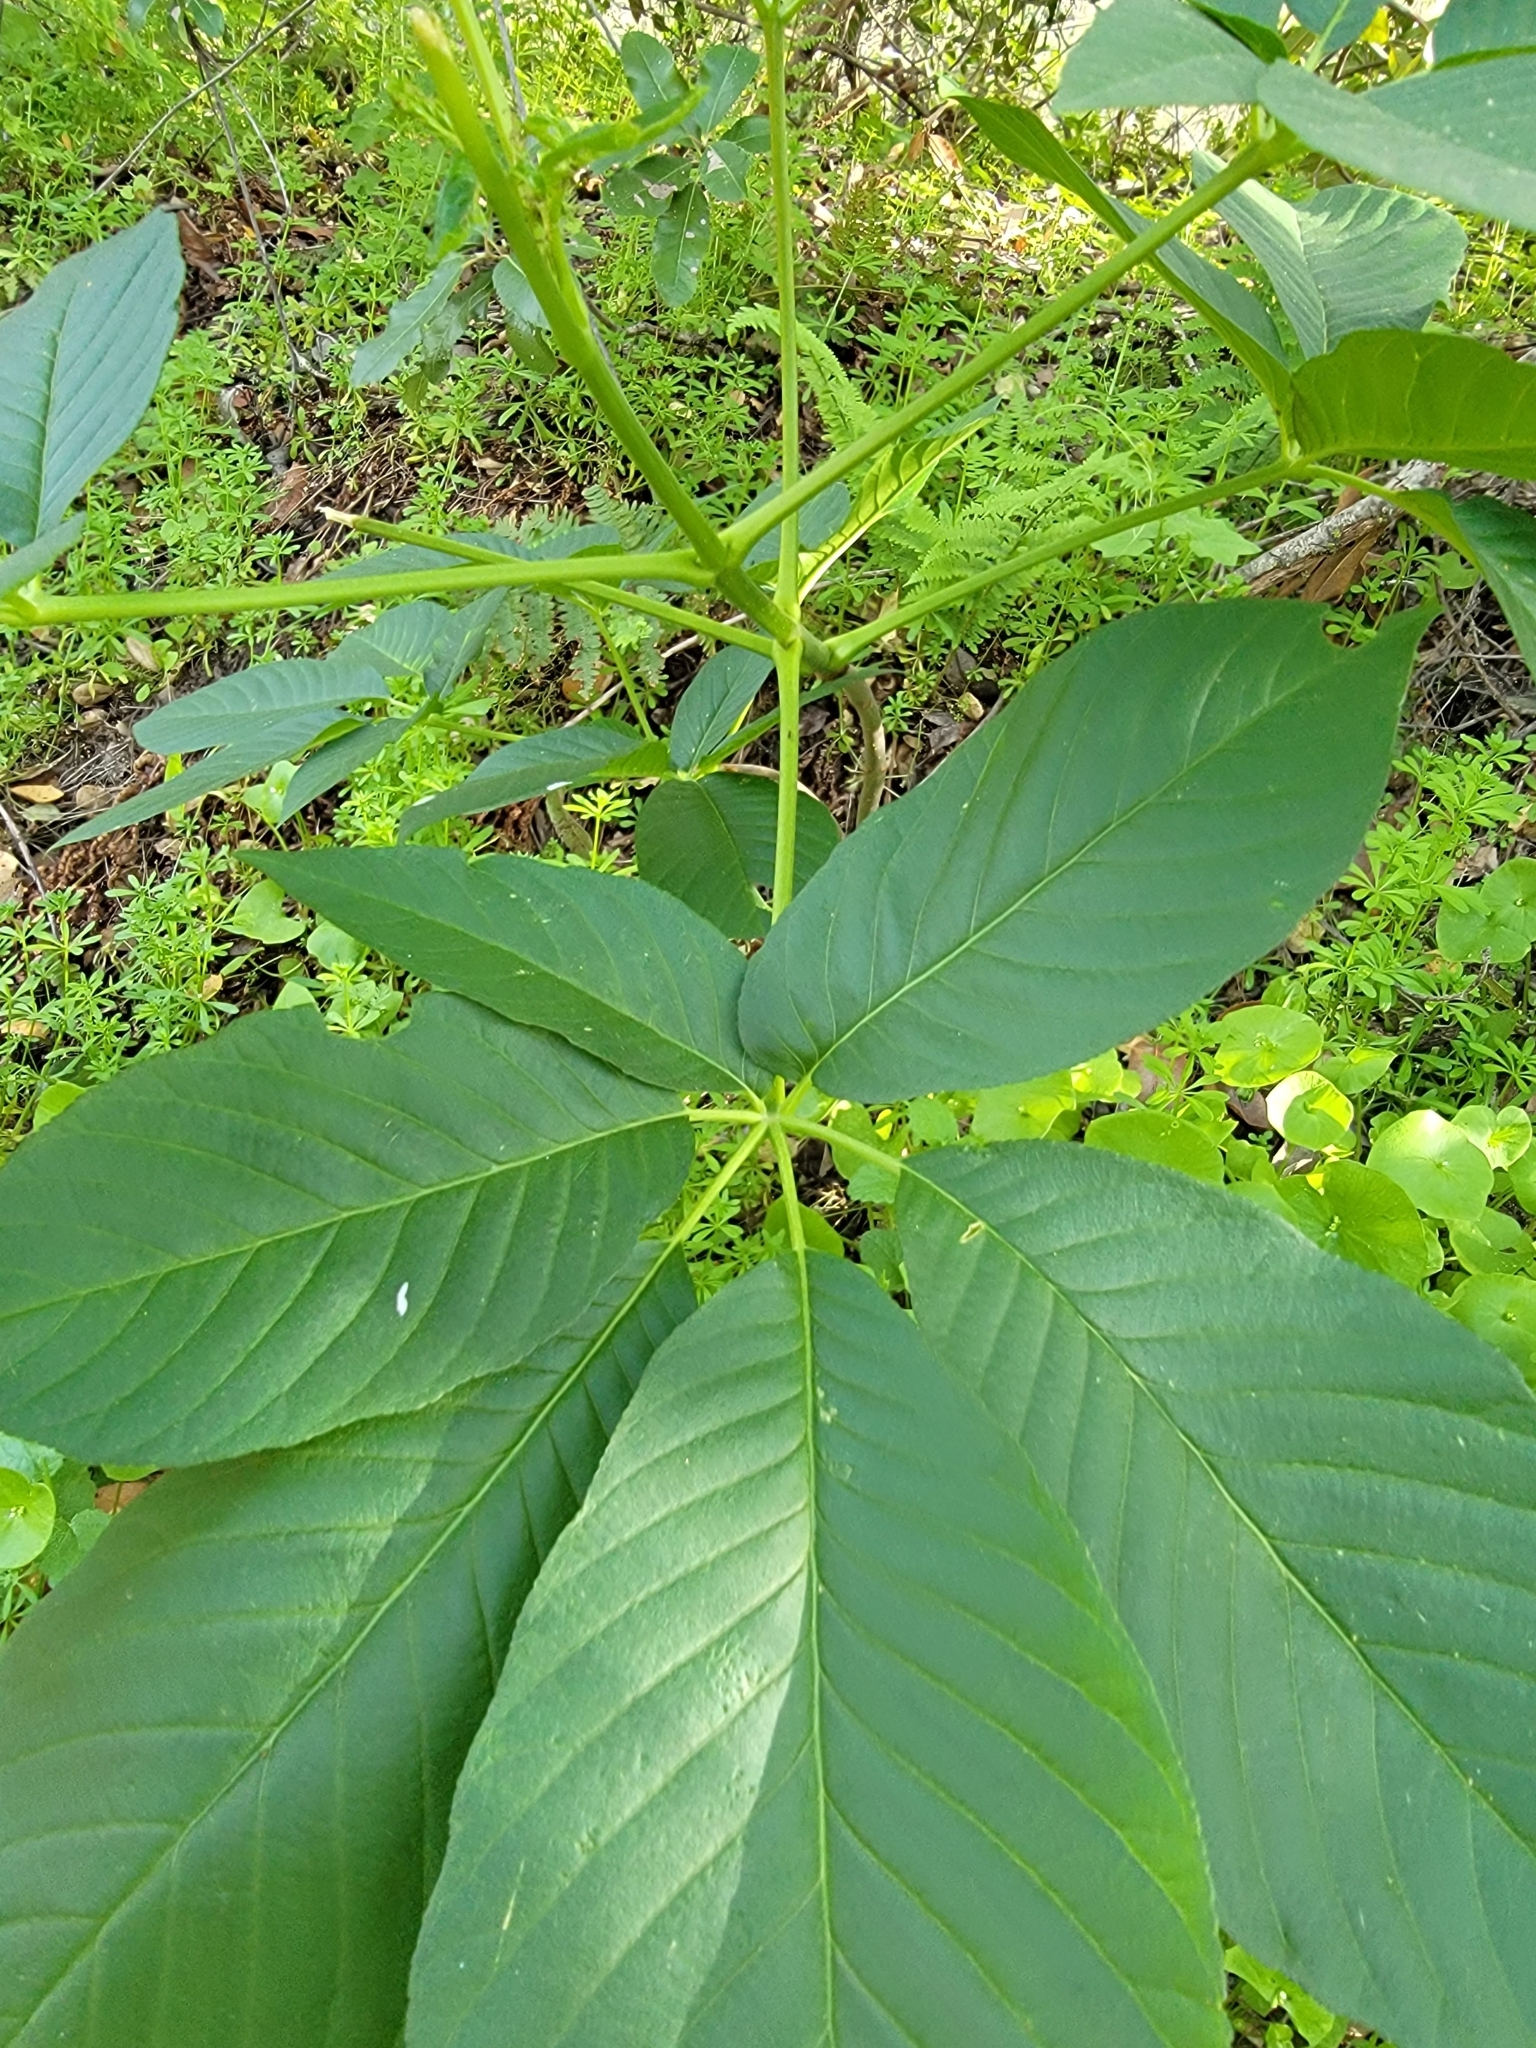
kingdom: Plantae
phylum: Tracheophyta
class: Magnoliopsida
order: Sapindales
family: Sapindaceae
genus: Aesculus
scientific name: Aesculus californica
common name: California buckeye
